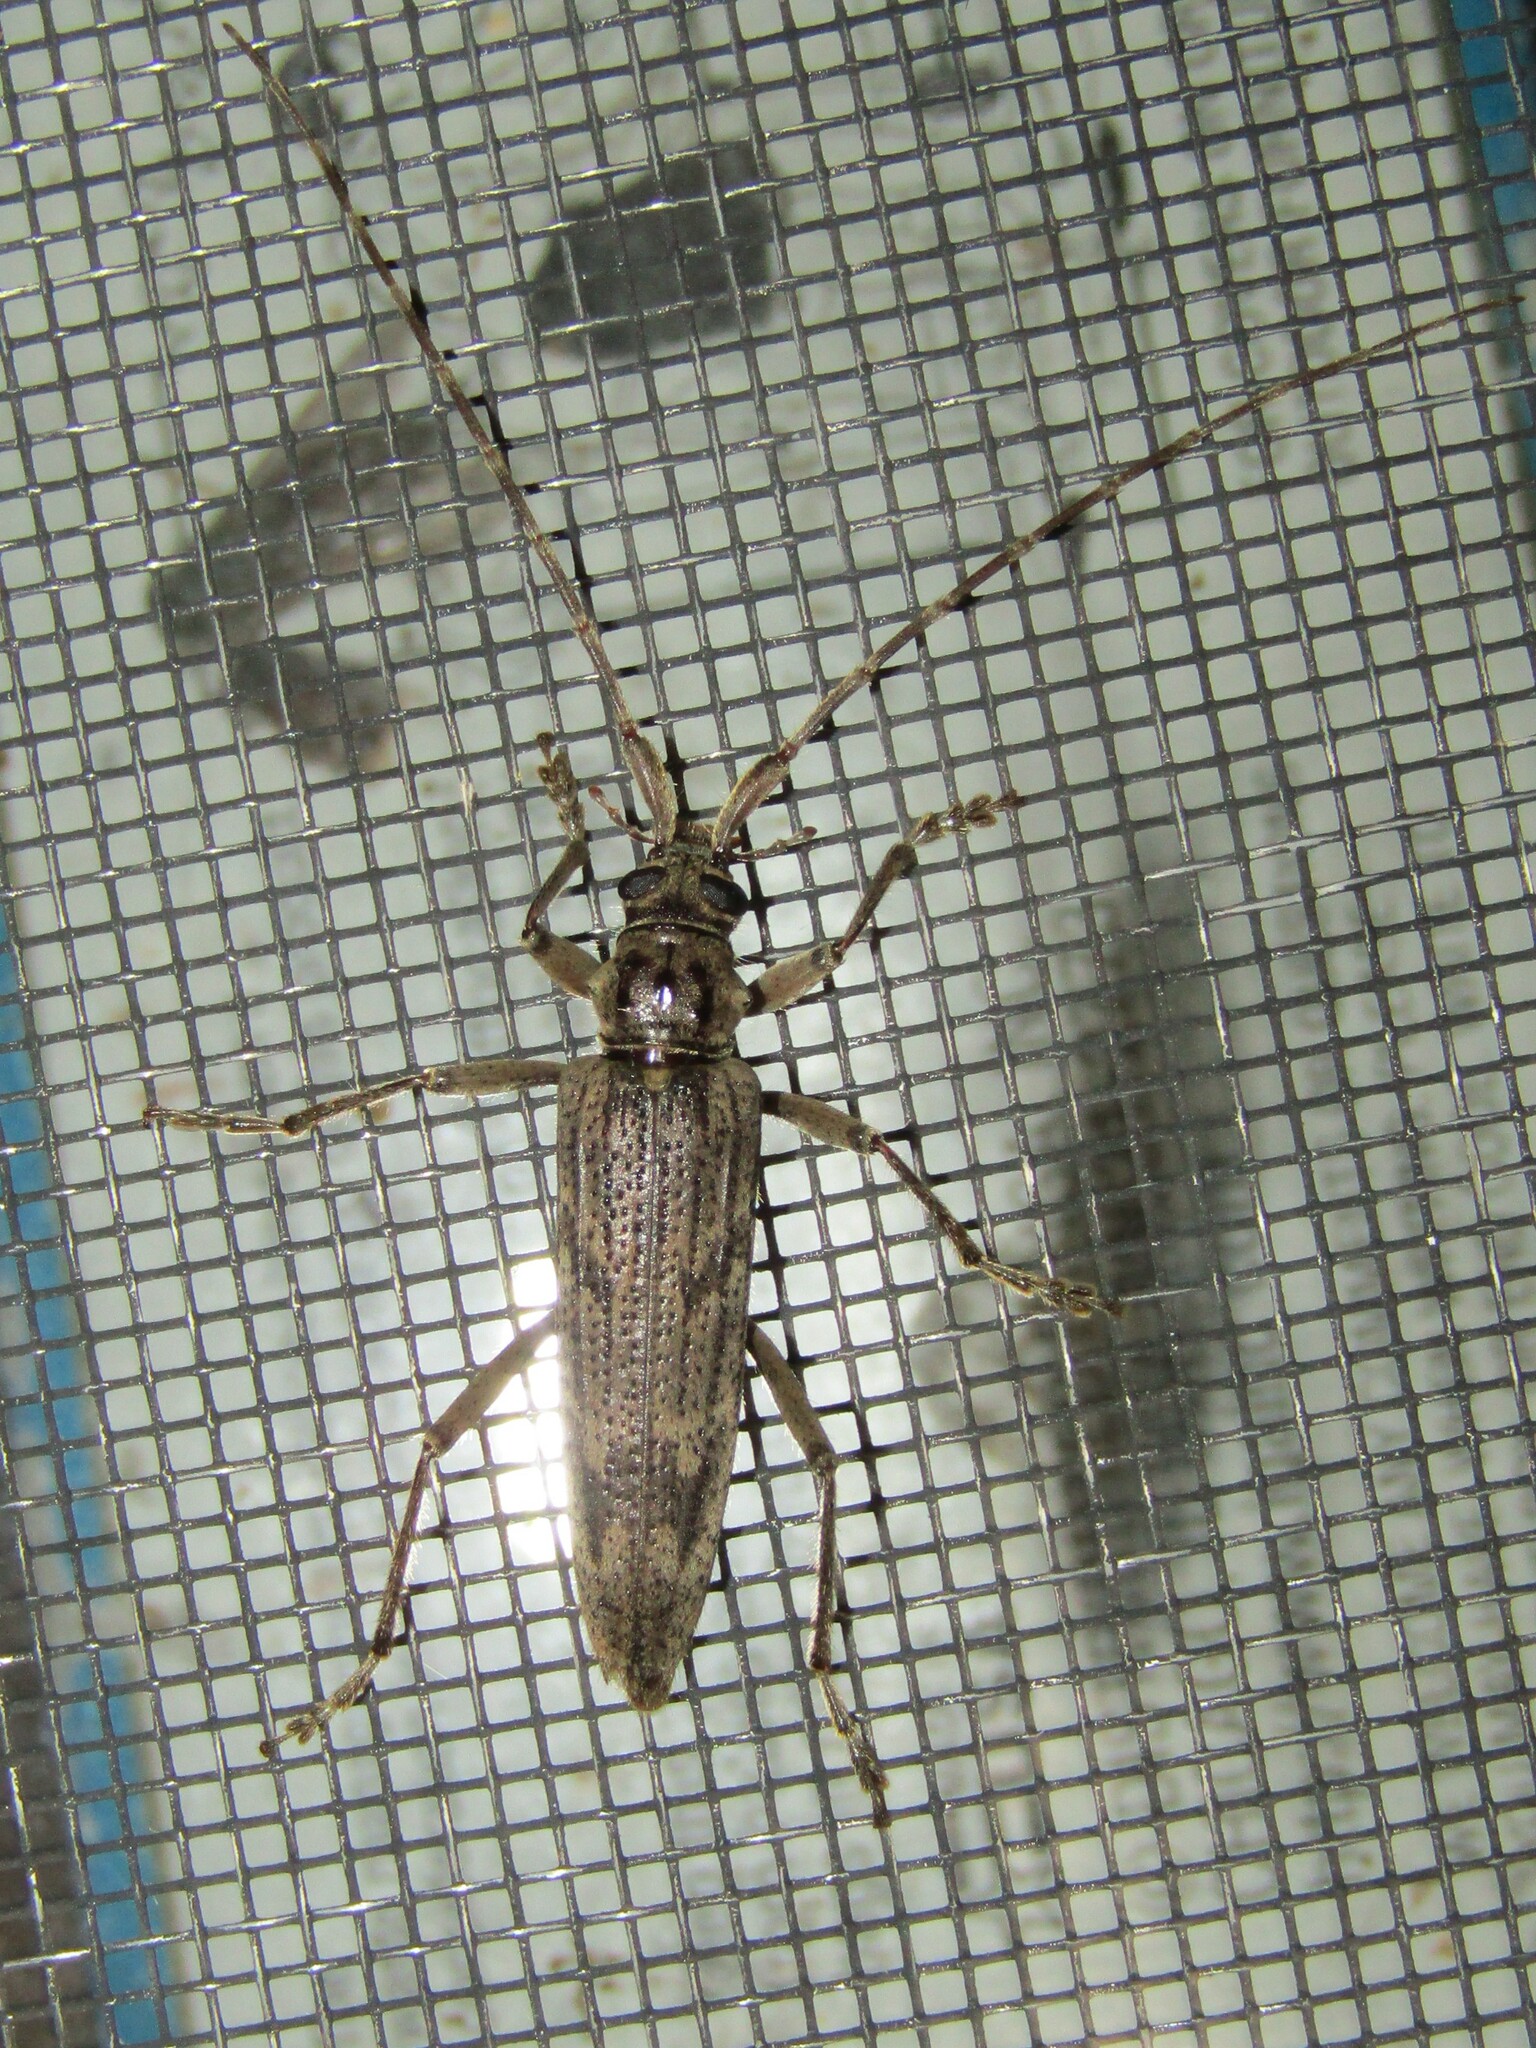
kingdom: Animalia
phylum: Arthropoda
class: Insecta
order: Coleoptera
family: Cerambycidae
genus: Elytrimitatrix
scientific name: Elytrimitatrix undata
